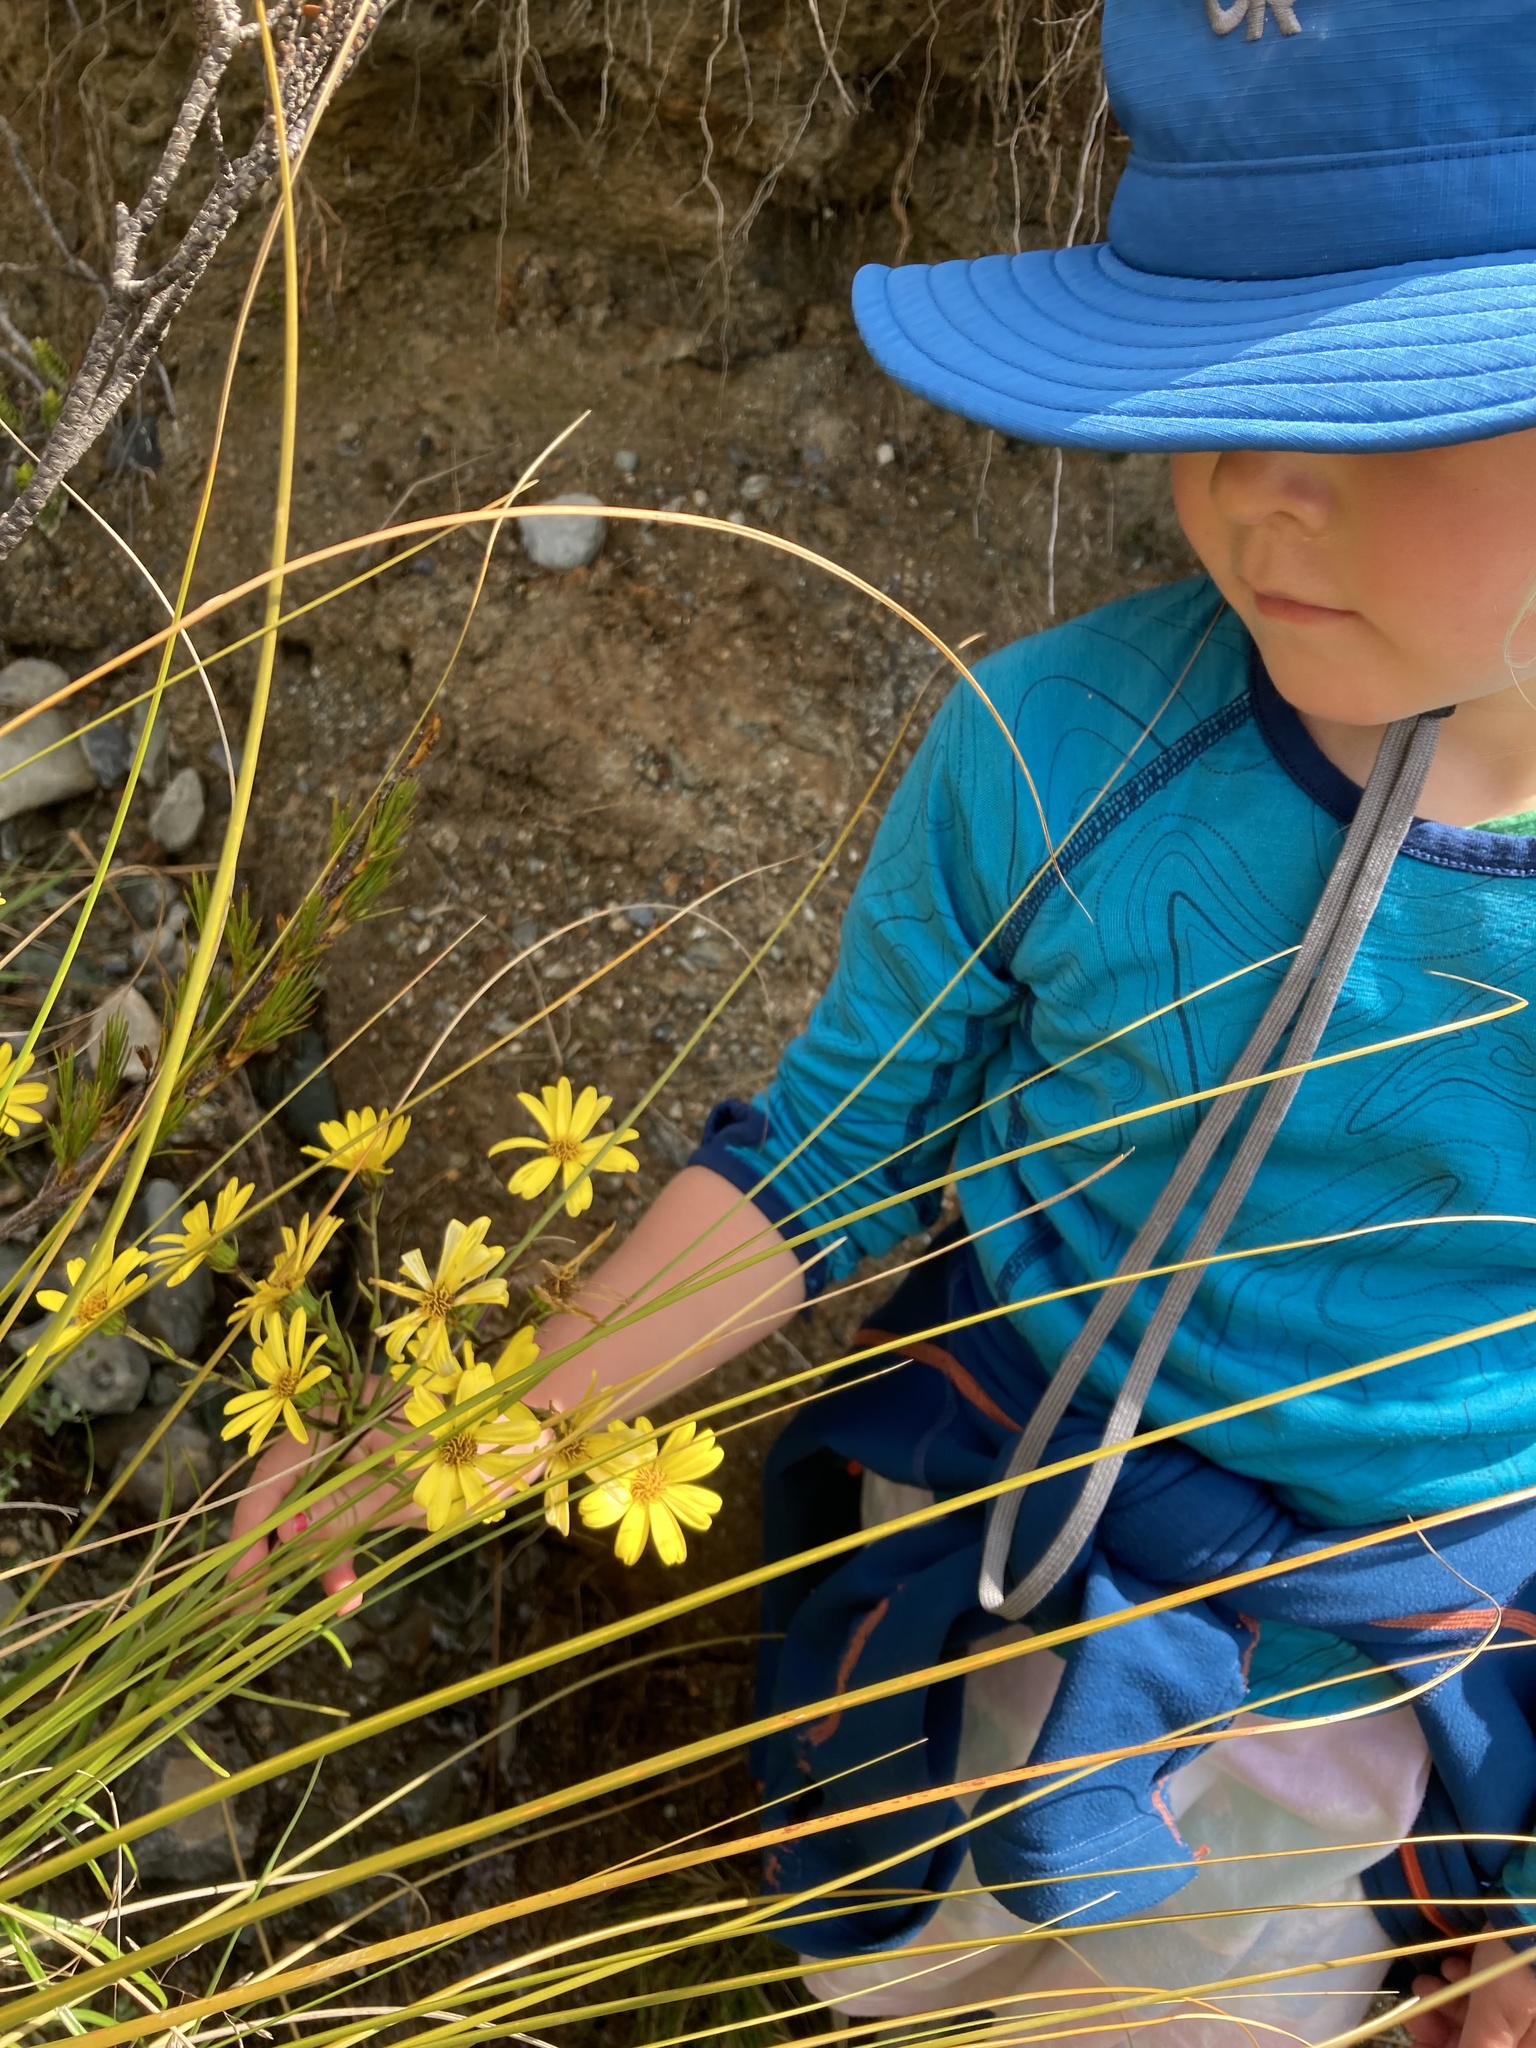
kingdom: Plantae
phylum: Tracheophyta
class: Magnoliopsida
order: Asterales
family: Asteraceae
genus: Dolichoglottis
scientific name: Dolichoglottis lyallii
